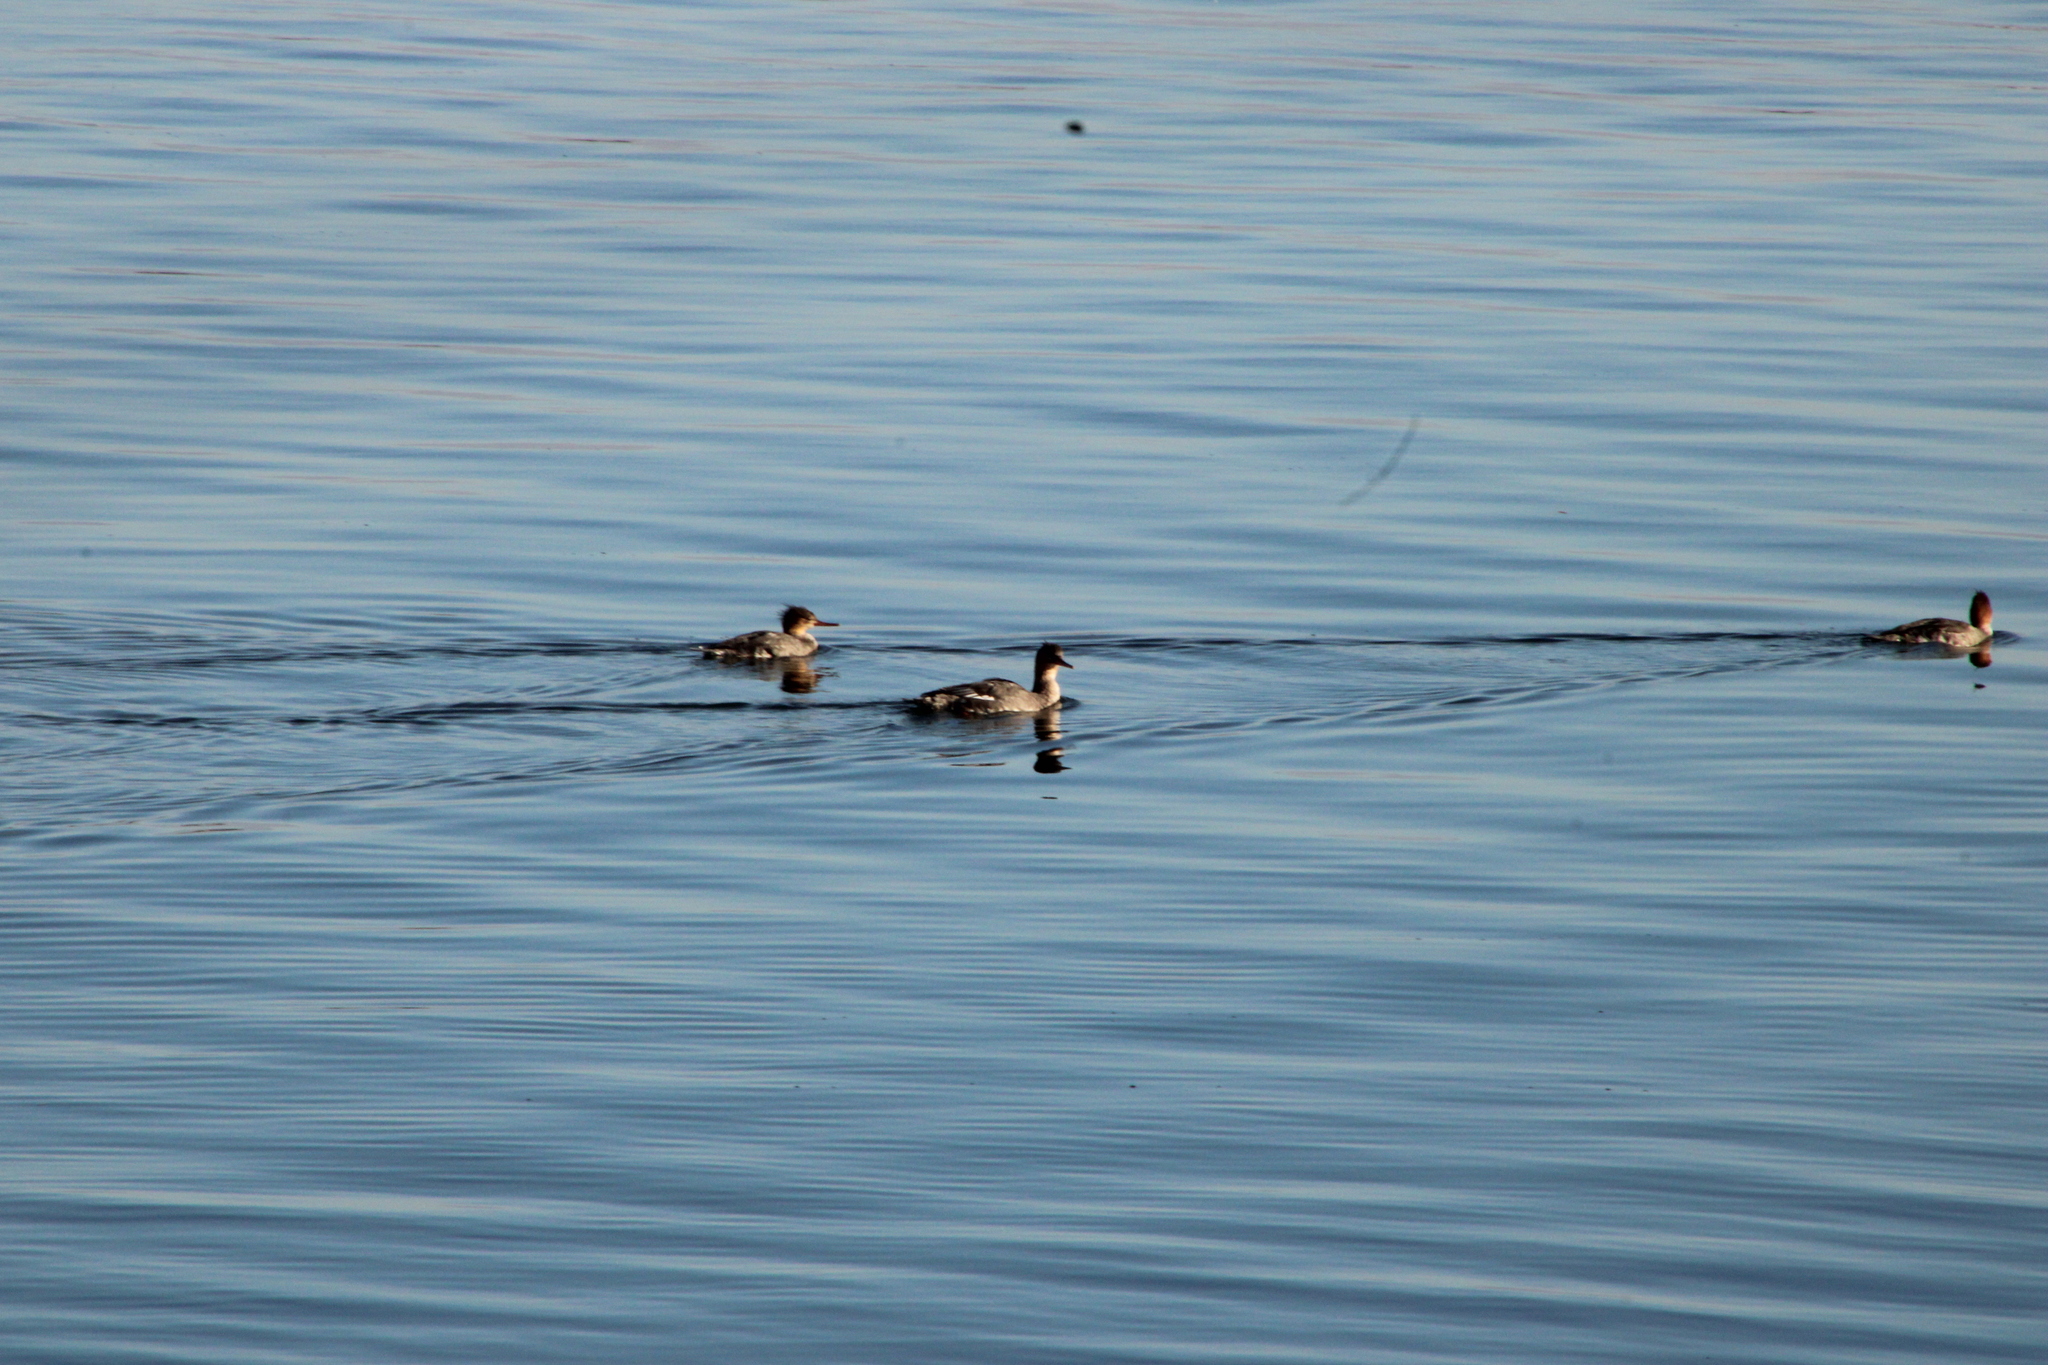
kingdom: Animalia
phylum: Chordata
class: Aves
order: Anseriformes
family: Anatidae
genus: Mergus
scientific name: Mergus serrator
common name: Red-breasted merganser
